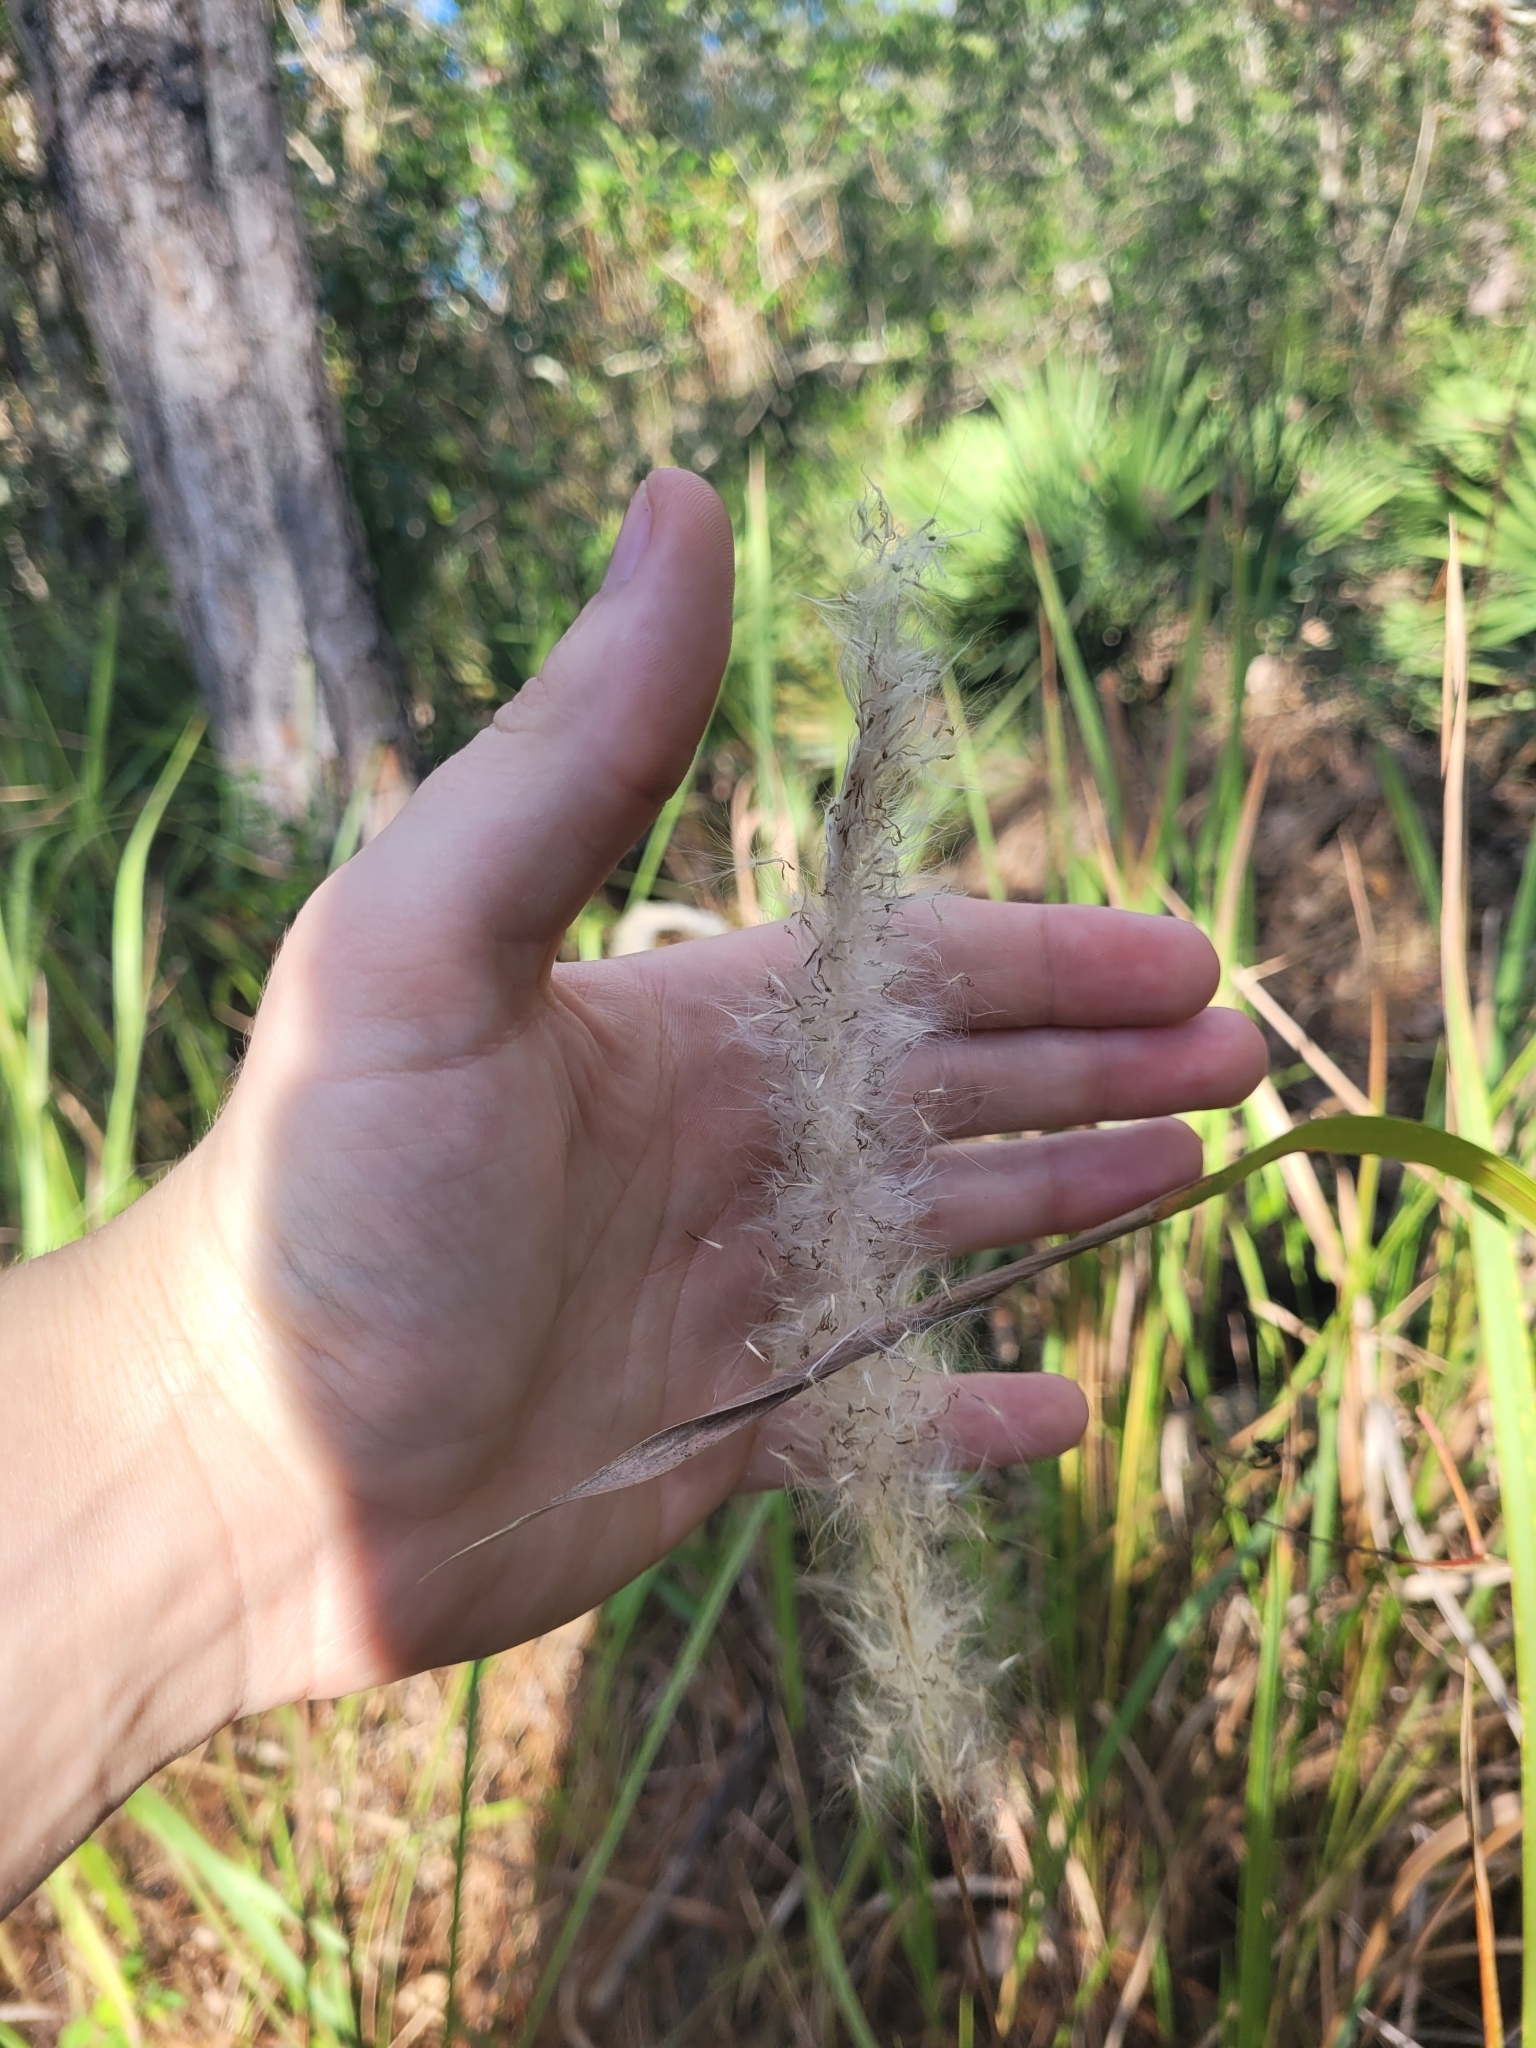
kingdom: Plantae
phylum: Tracheophyta
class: Liliopsida
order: Poales
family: Poaceae
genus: Imperata
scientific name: Imperata cylindrica
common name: Cogongrass
